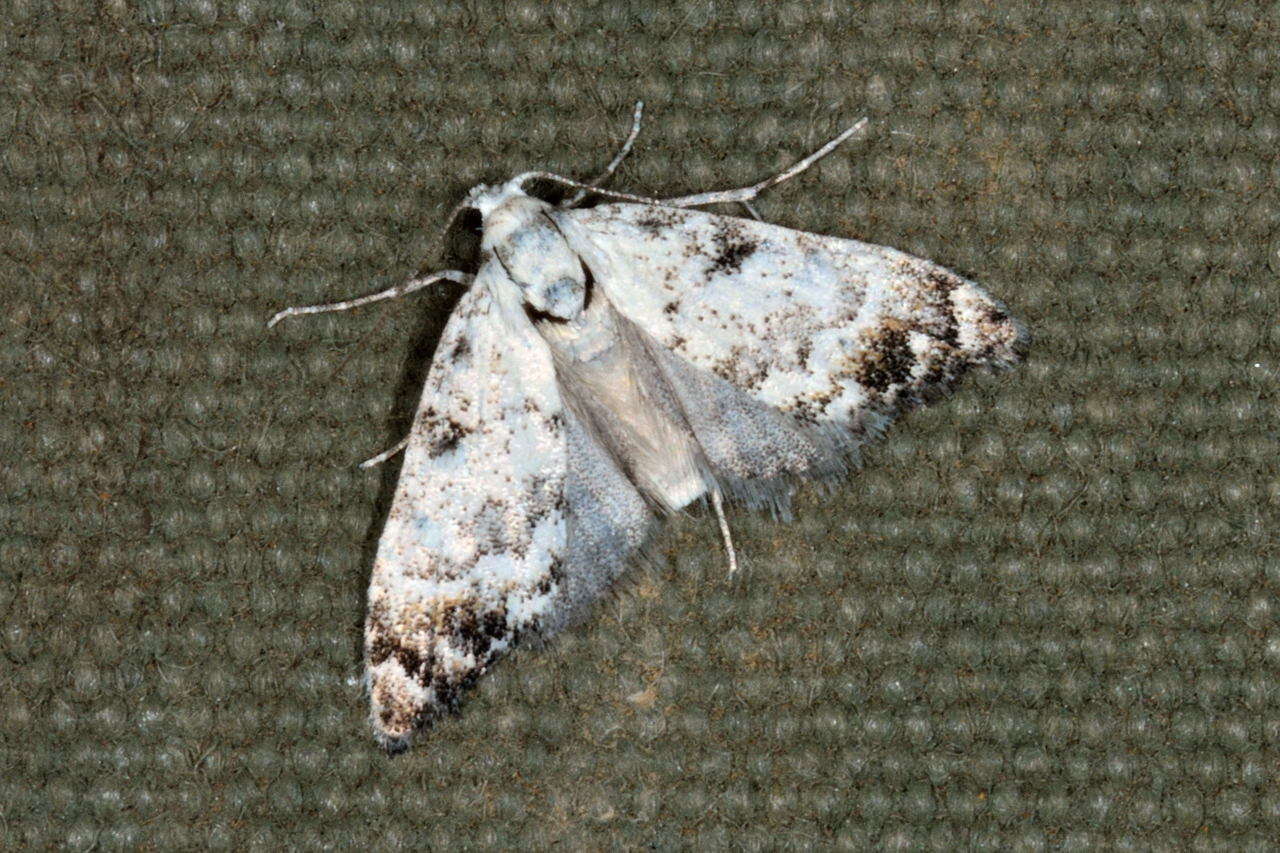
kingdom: Animalia
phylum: Arthropoda
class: Insecta
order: Lepidoptera
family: Nolidae
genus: Nola
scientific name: Nola semograpta
